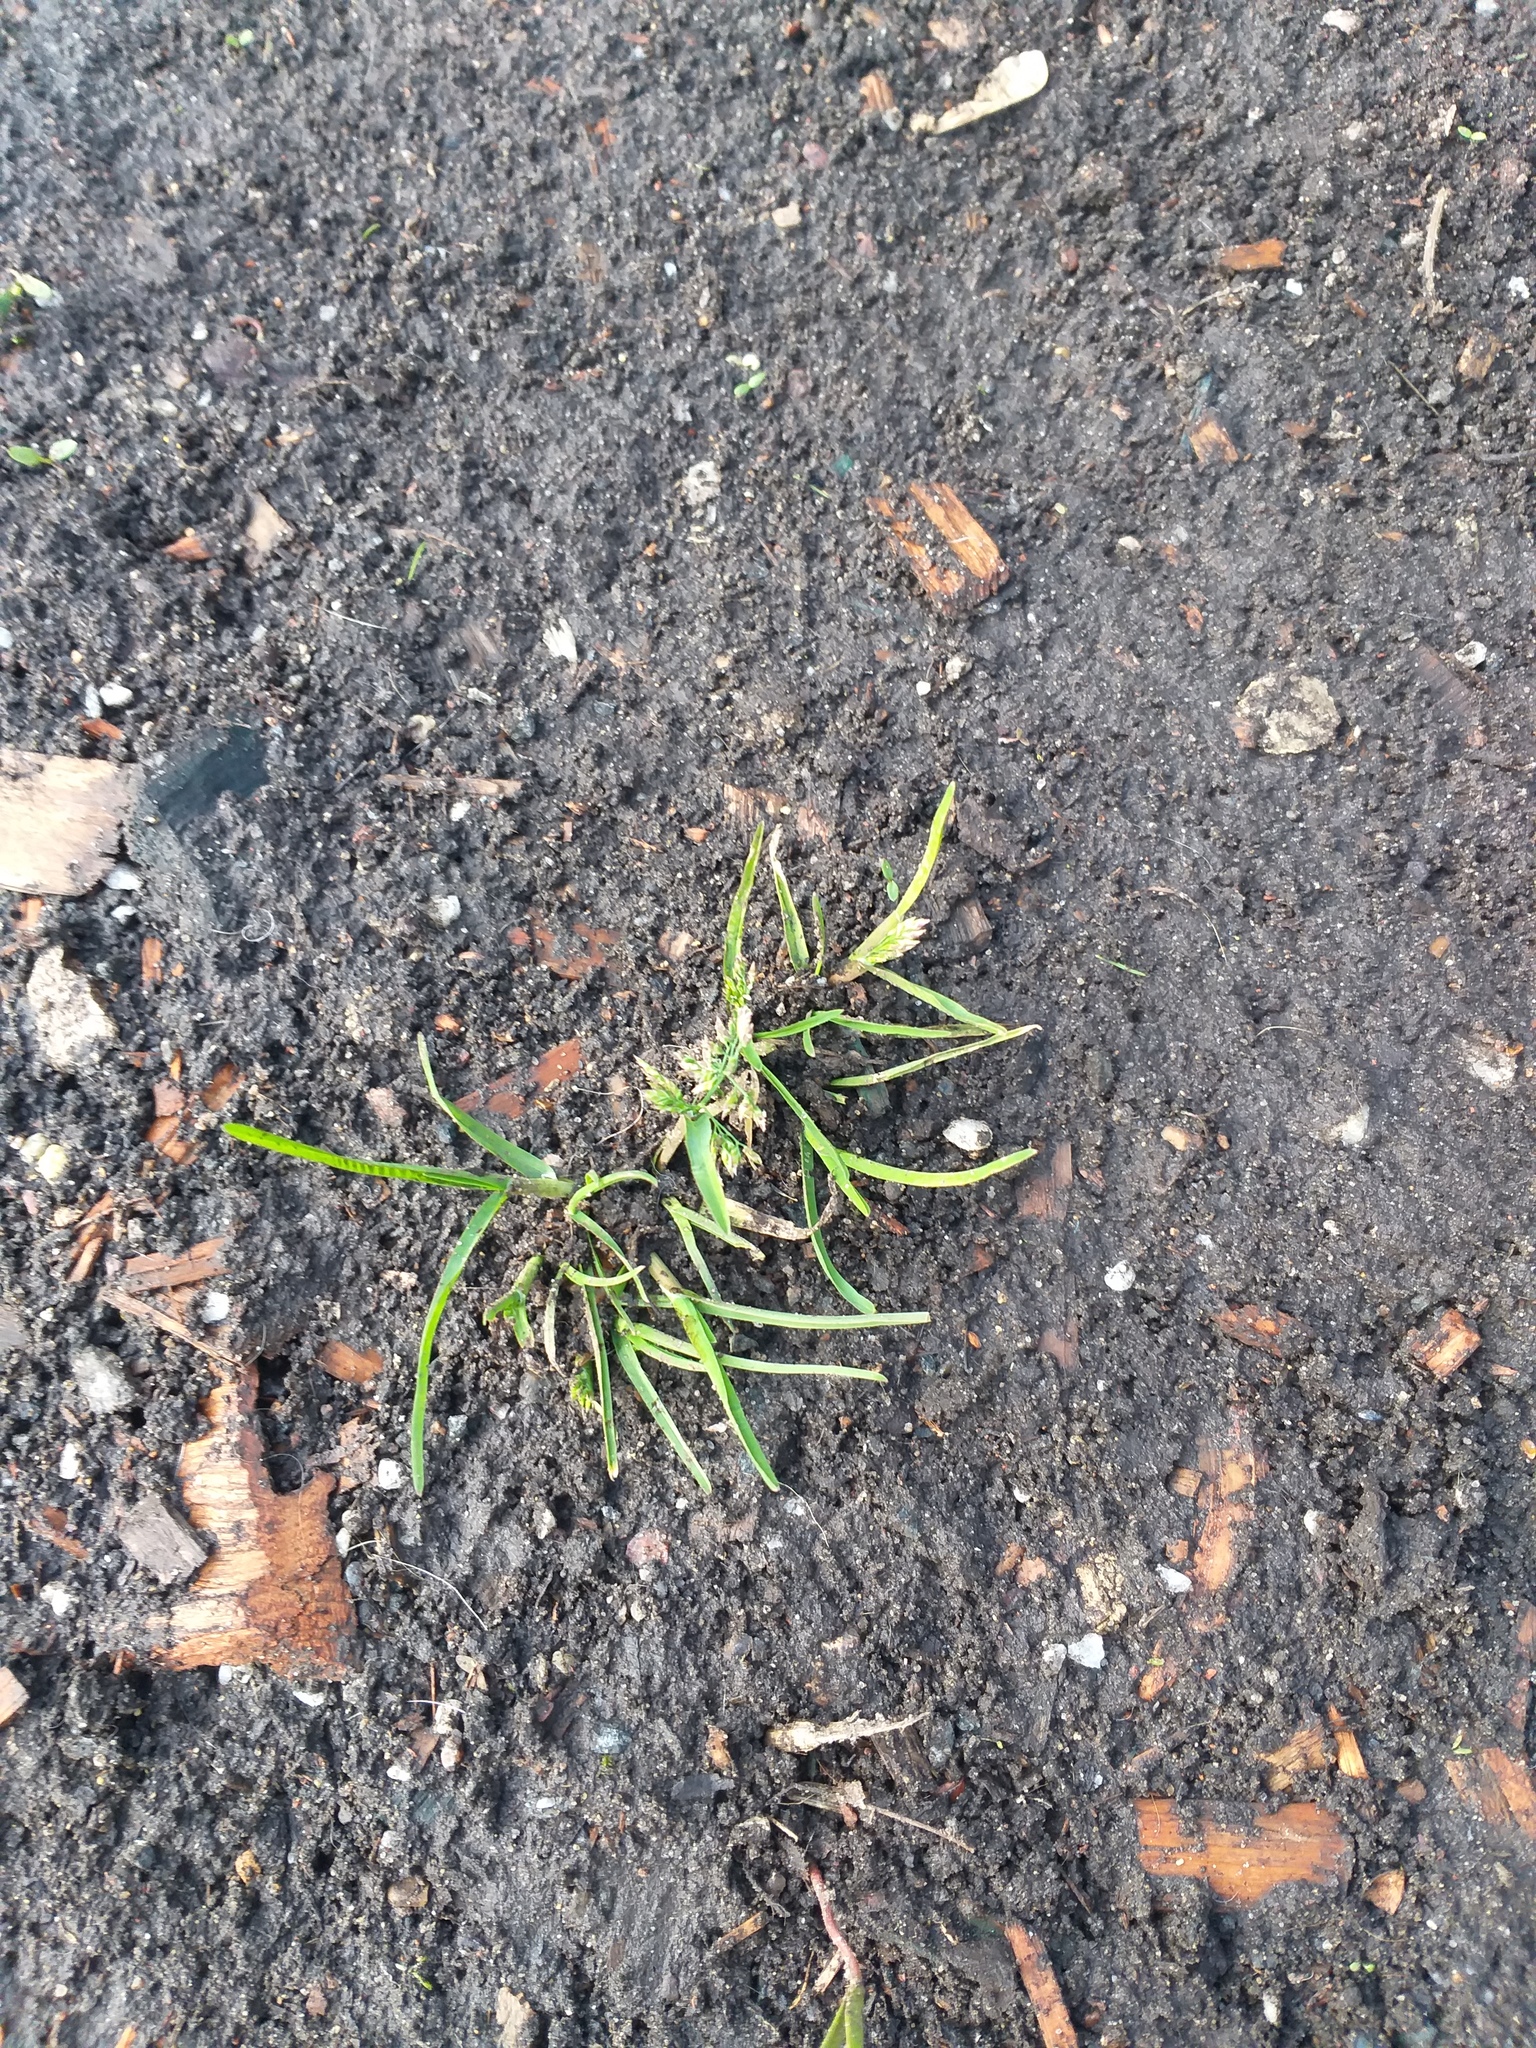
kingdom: Plantae
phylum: Tracheophyta
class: Liliopsida
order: Poales
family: Poaceae
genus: Poa
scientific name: Poa annua
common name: Annual bluegrass
